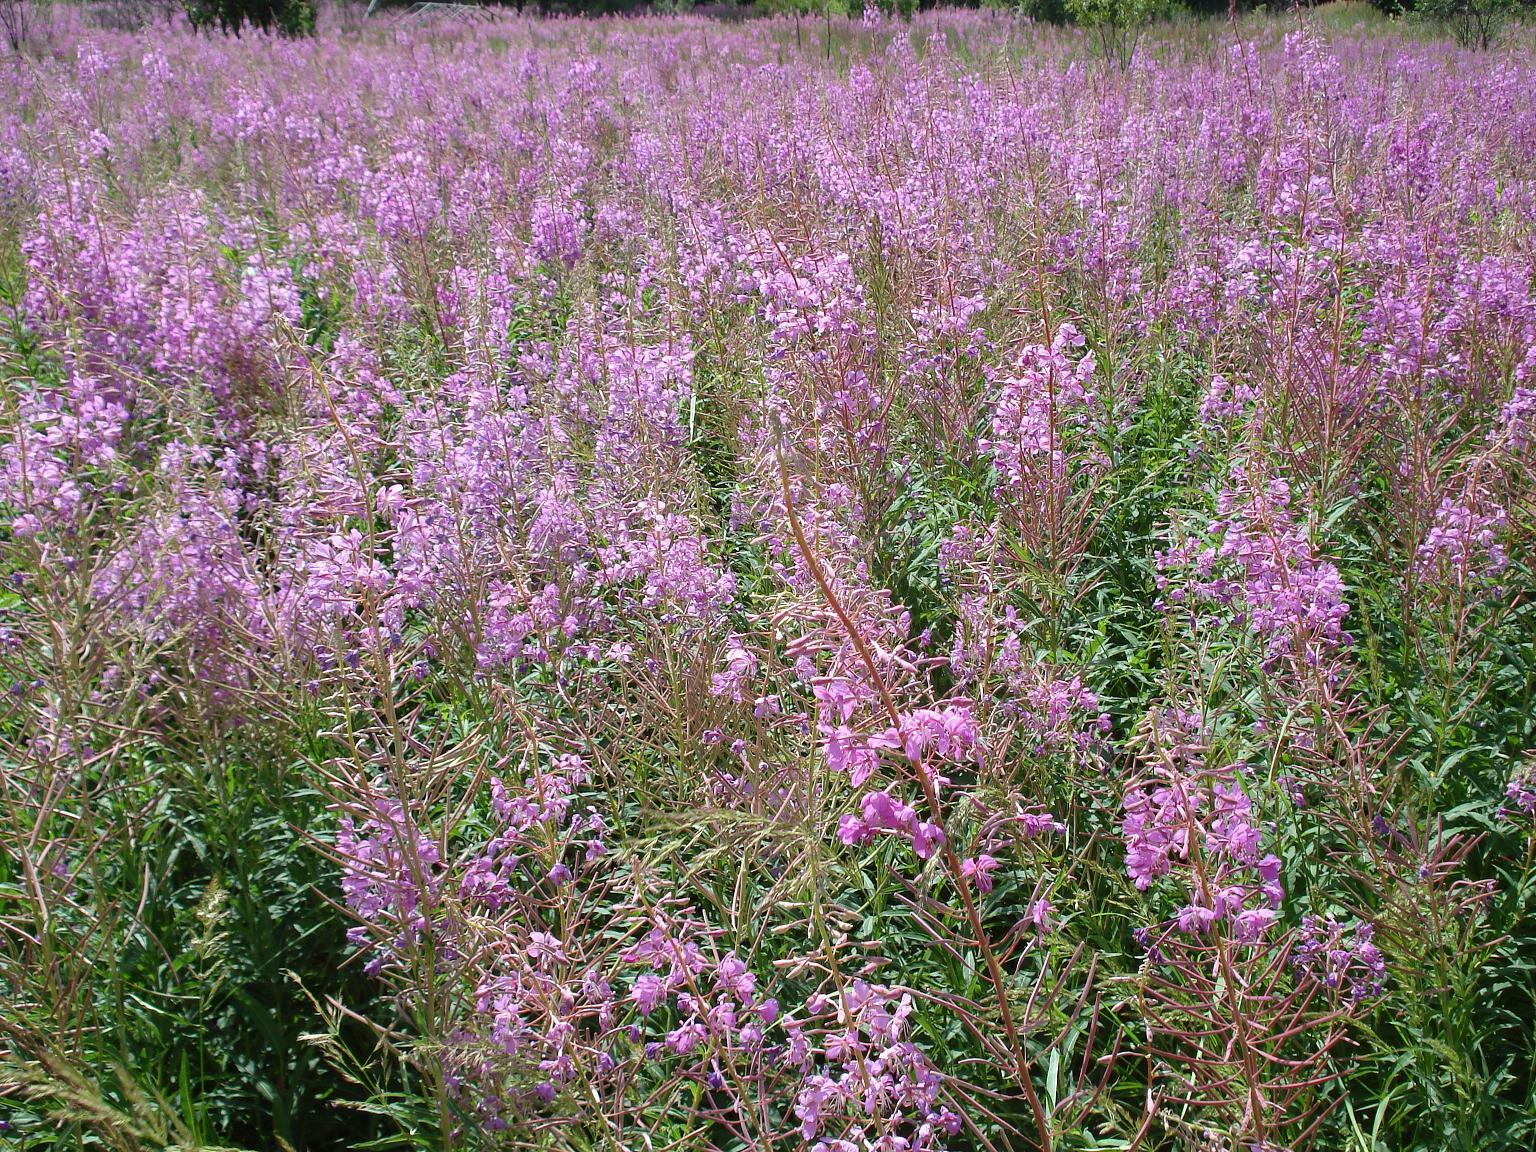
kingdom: Plantae
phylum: Tracheophyta
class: Magnoliopsida
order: Myrtales
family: Onagraceae
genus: Chamaenerion
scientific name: Chamaenerion angustifolium
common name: Fireweed
